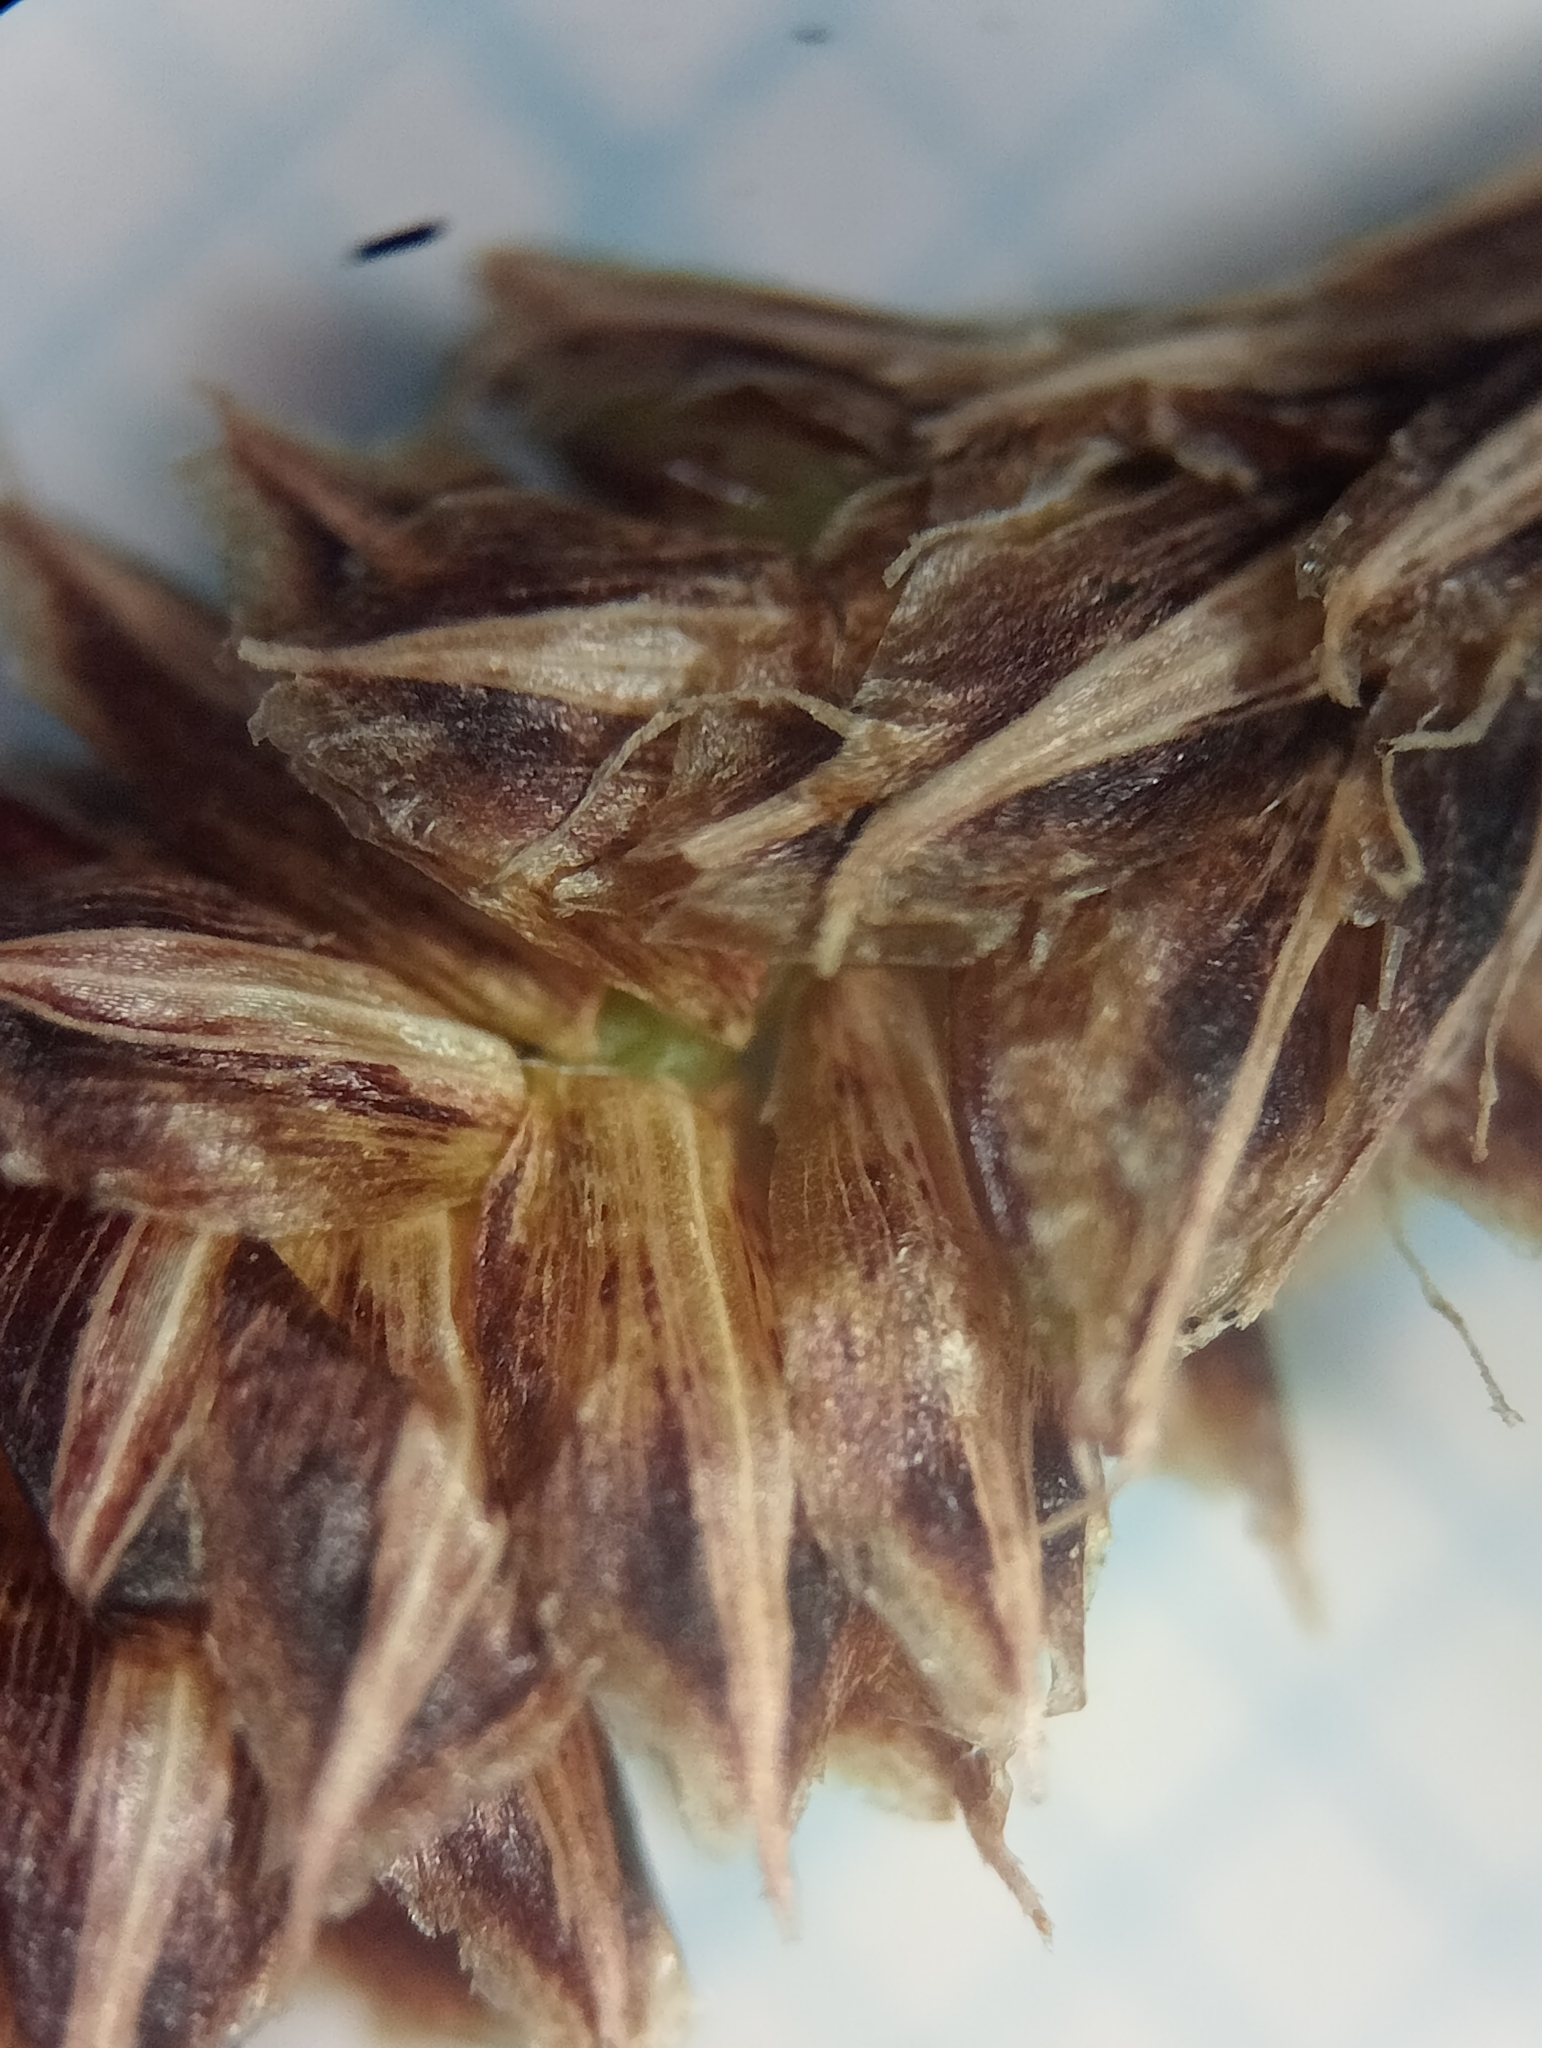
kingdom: Plantae
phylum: Tracheophyta
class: Liliopsida
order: Poales
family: Cyperaceae
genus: Carex
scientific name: Carex dissita
